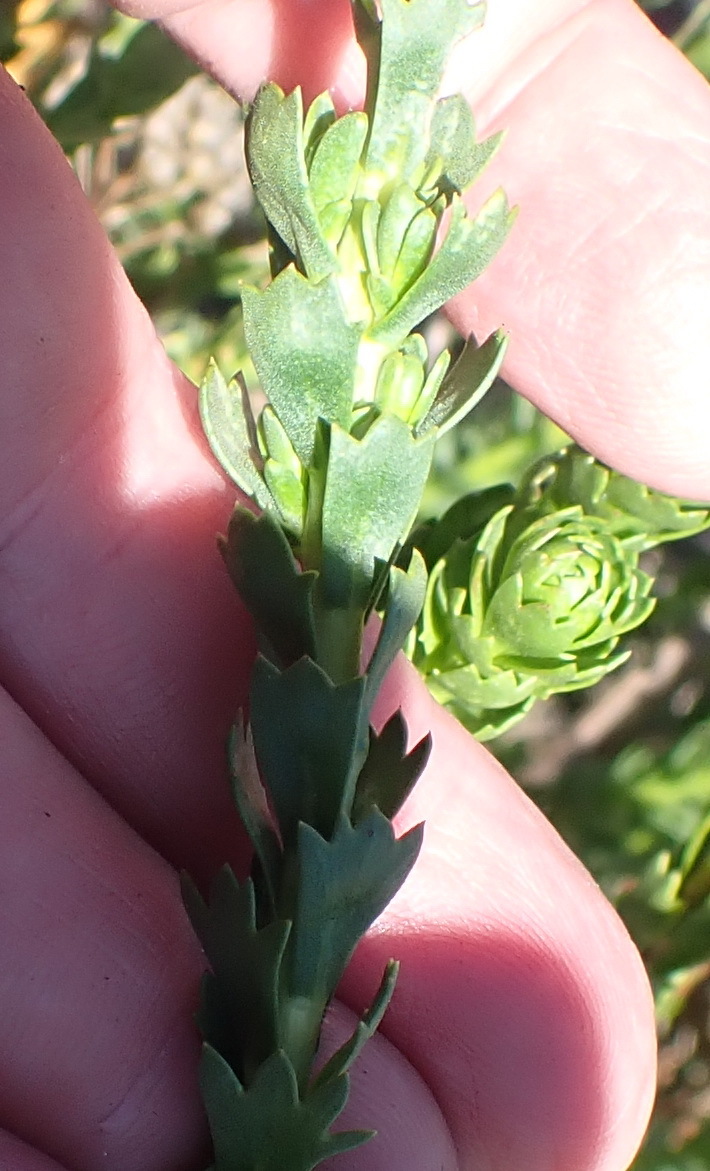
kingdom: Plantae
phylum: Tracheophyta
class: Magnoliopsida
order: Asterales
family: Asteraceae
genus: Athanasia
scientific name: Athanasia trifurcata
